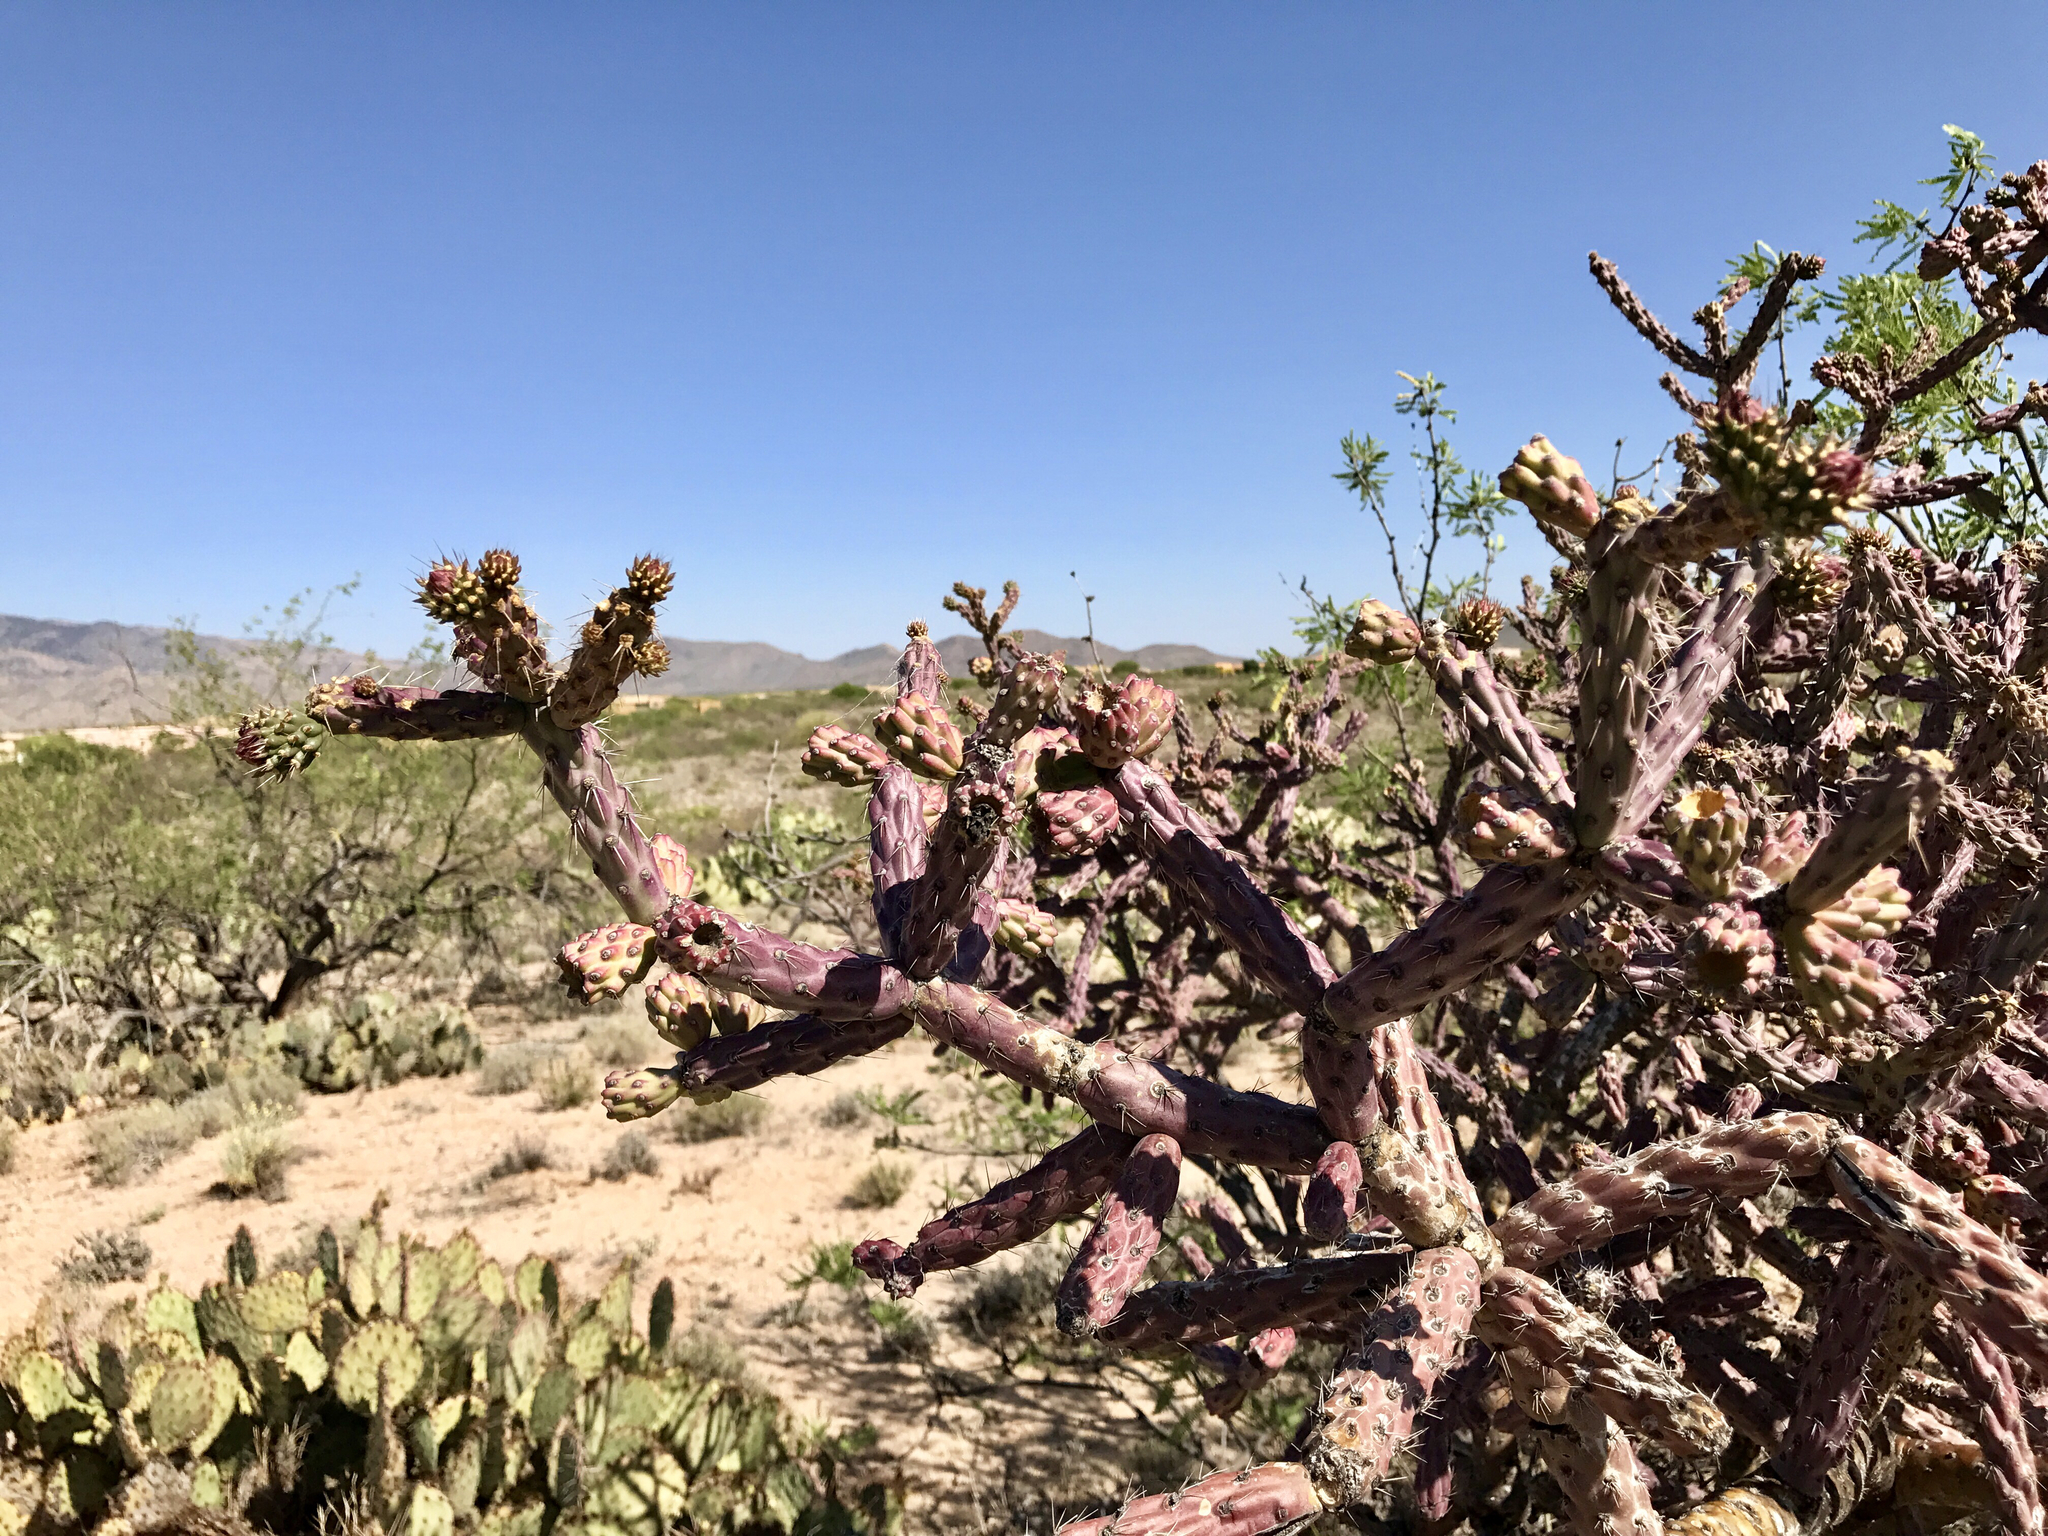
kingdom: Plantae
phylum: Tracheophyta
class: Magnoliopsida
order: Caryophyllales
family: Cactaceae
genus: Cylindropuntia
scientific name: Cylindropuntia thurberi
